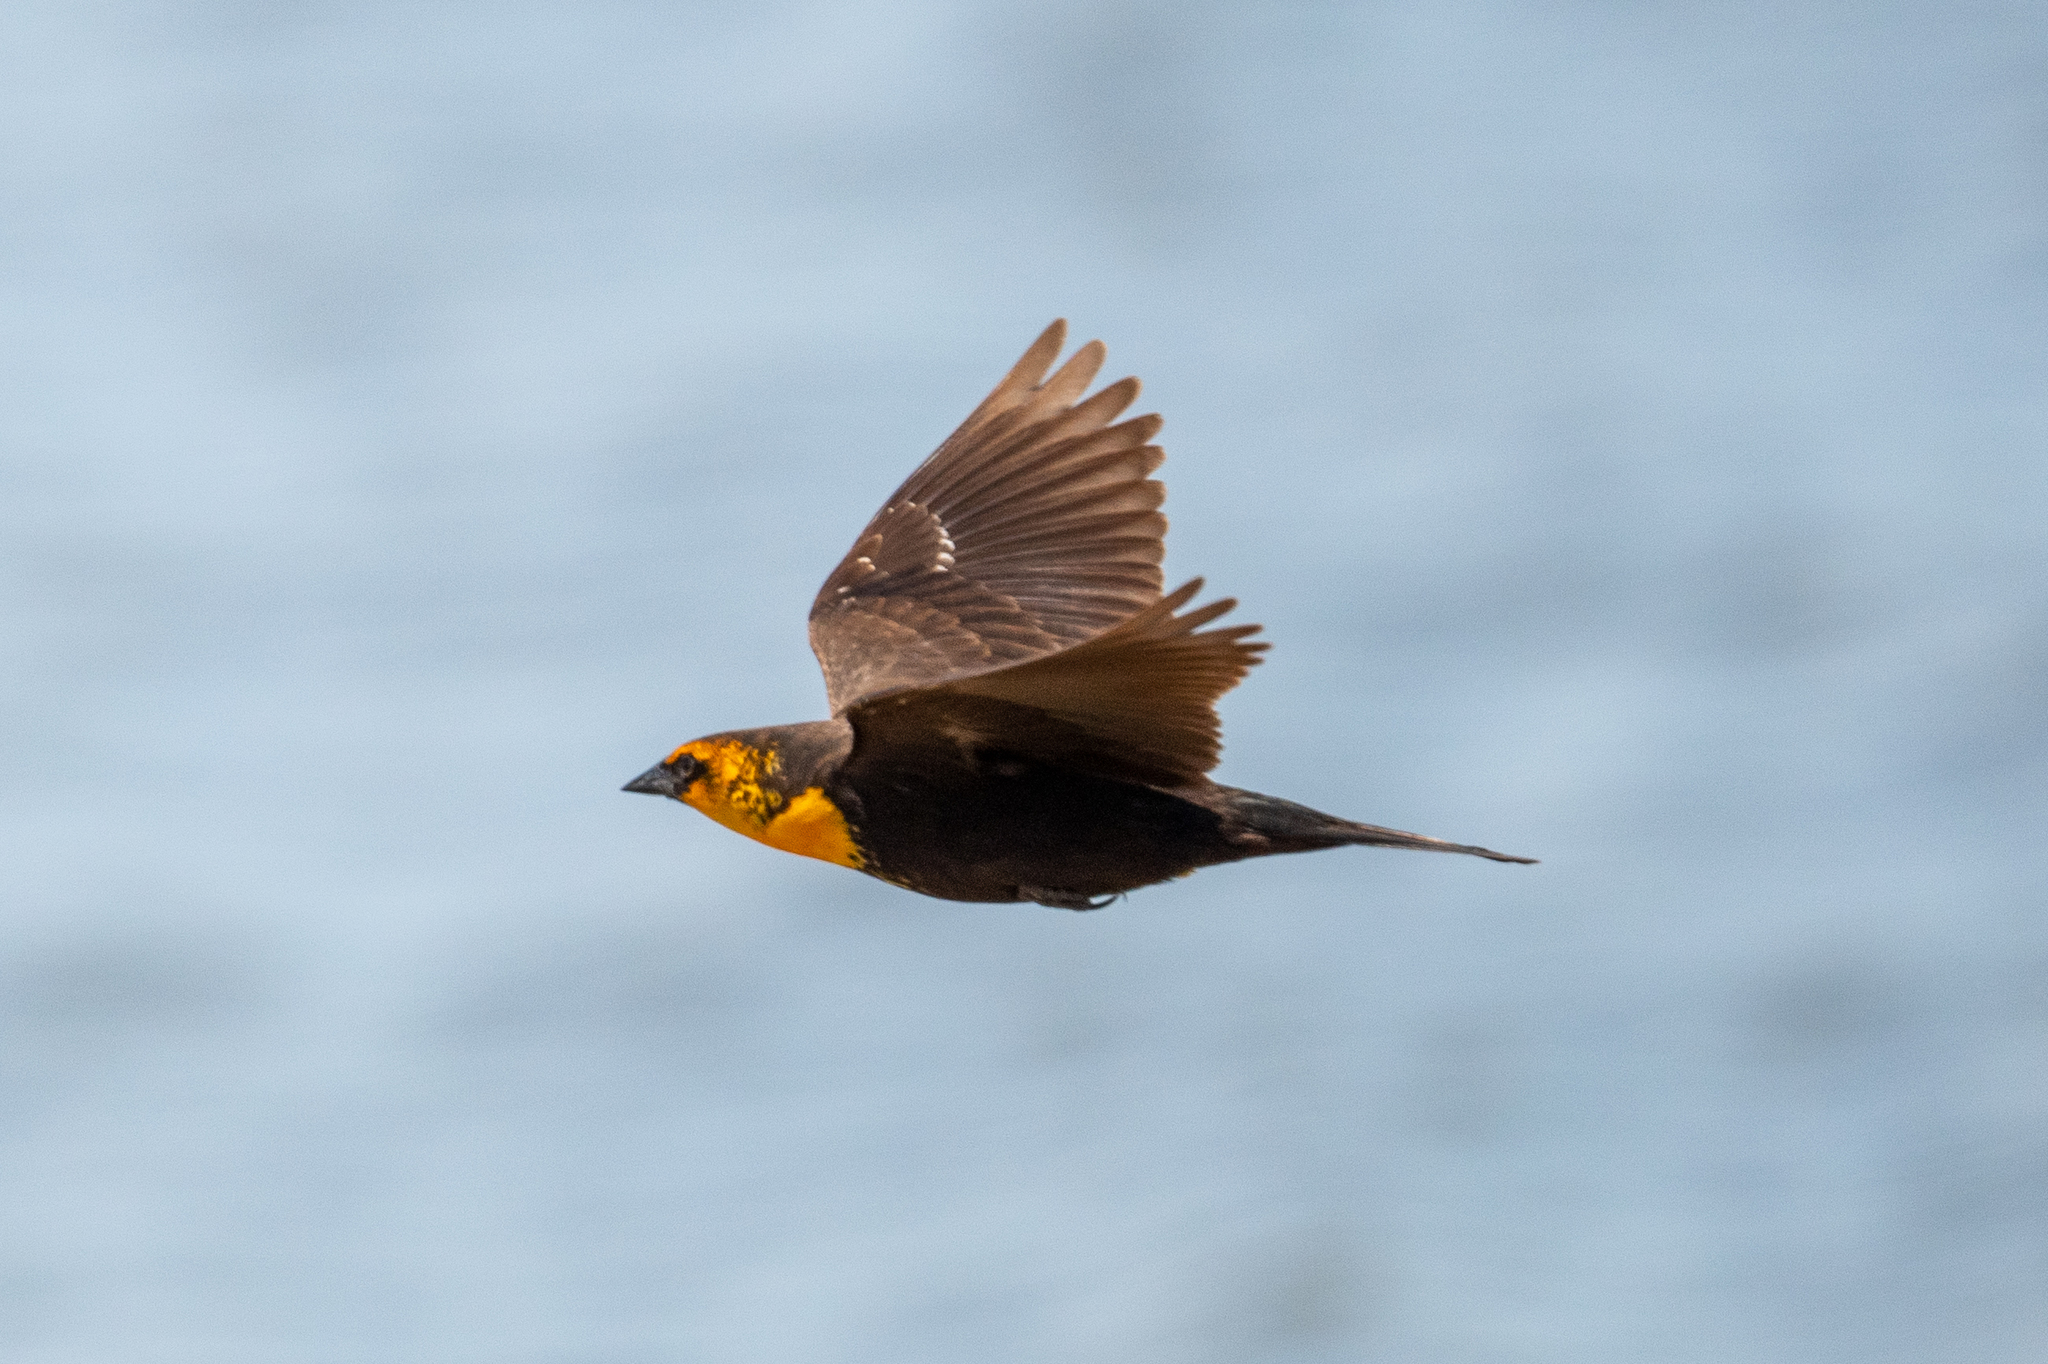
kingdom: Animalia
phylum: Chordata
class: Aves
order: Passeriformes
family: Icteridae
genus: Xanthocephalus
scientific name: Xanthocephalus xanthocephalus
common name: Yellow-headed blackbird
